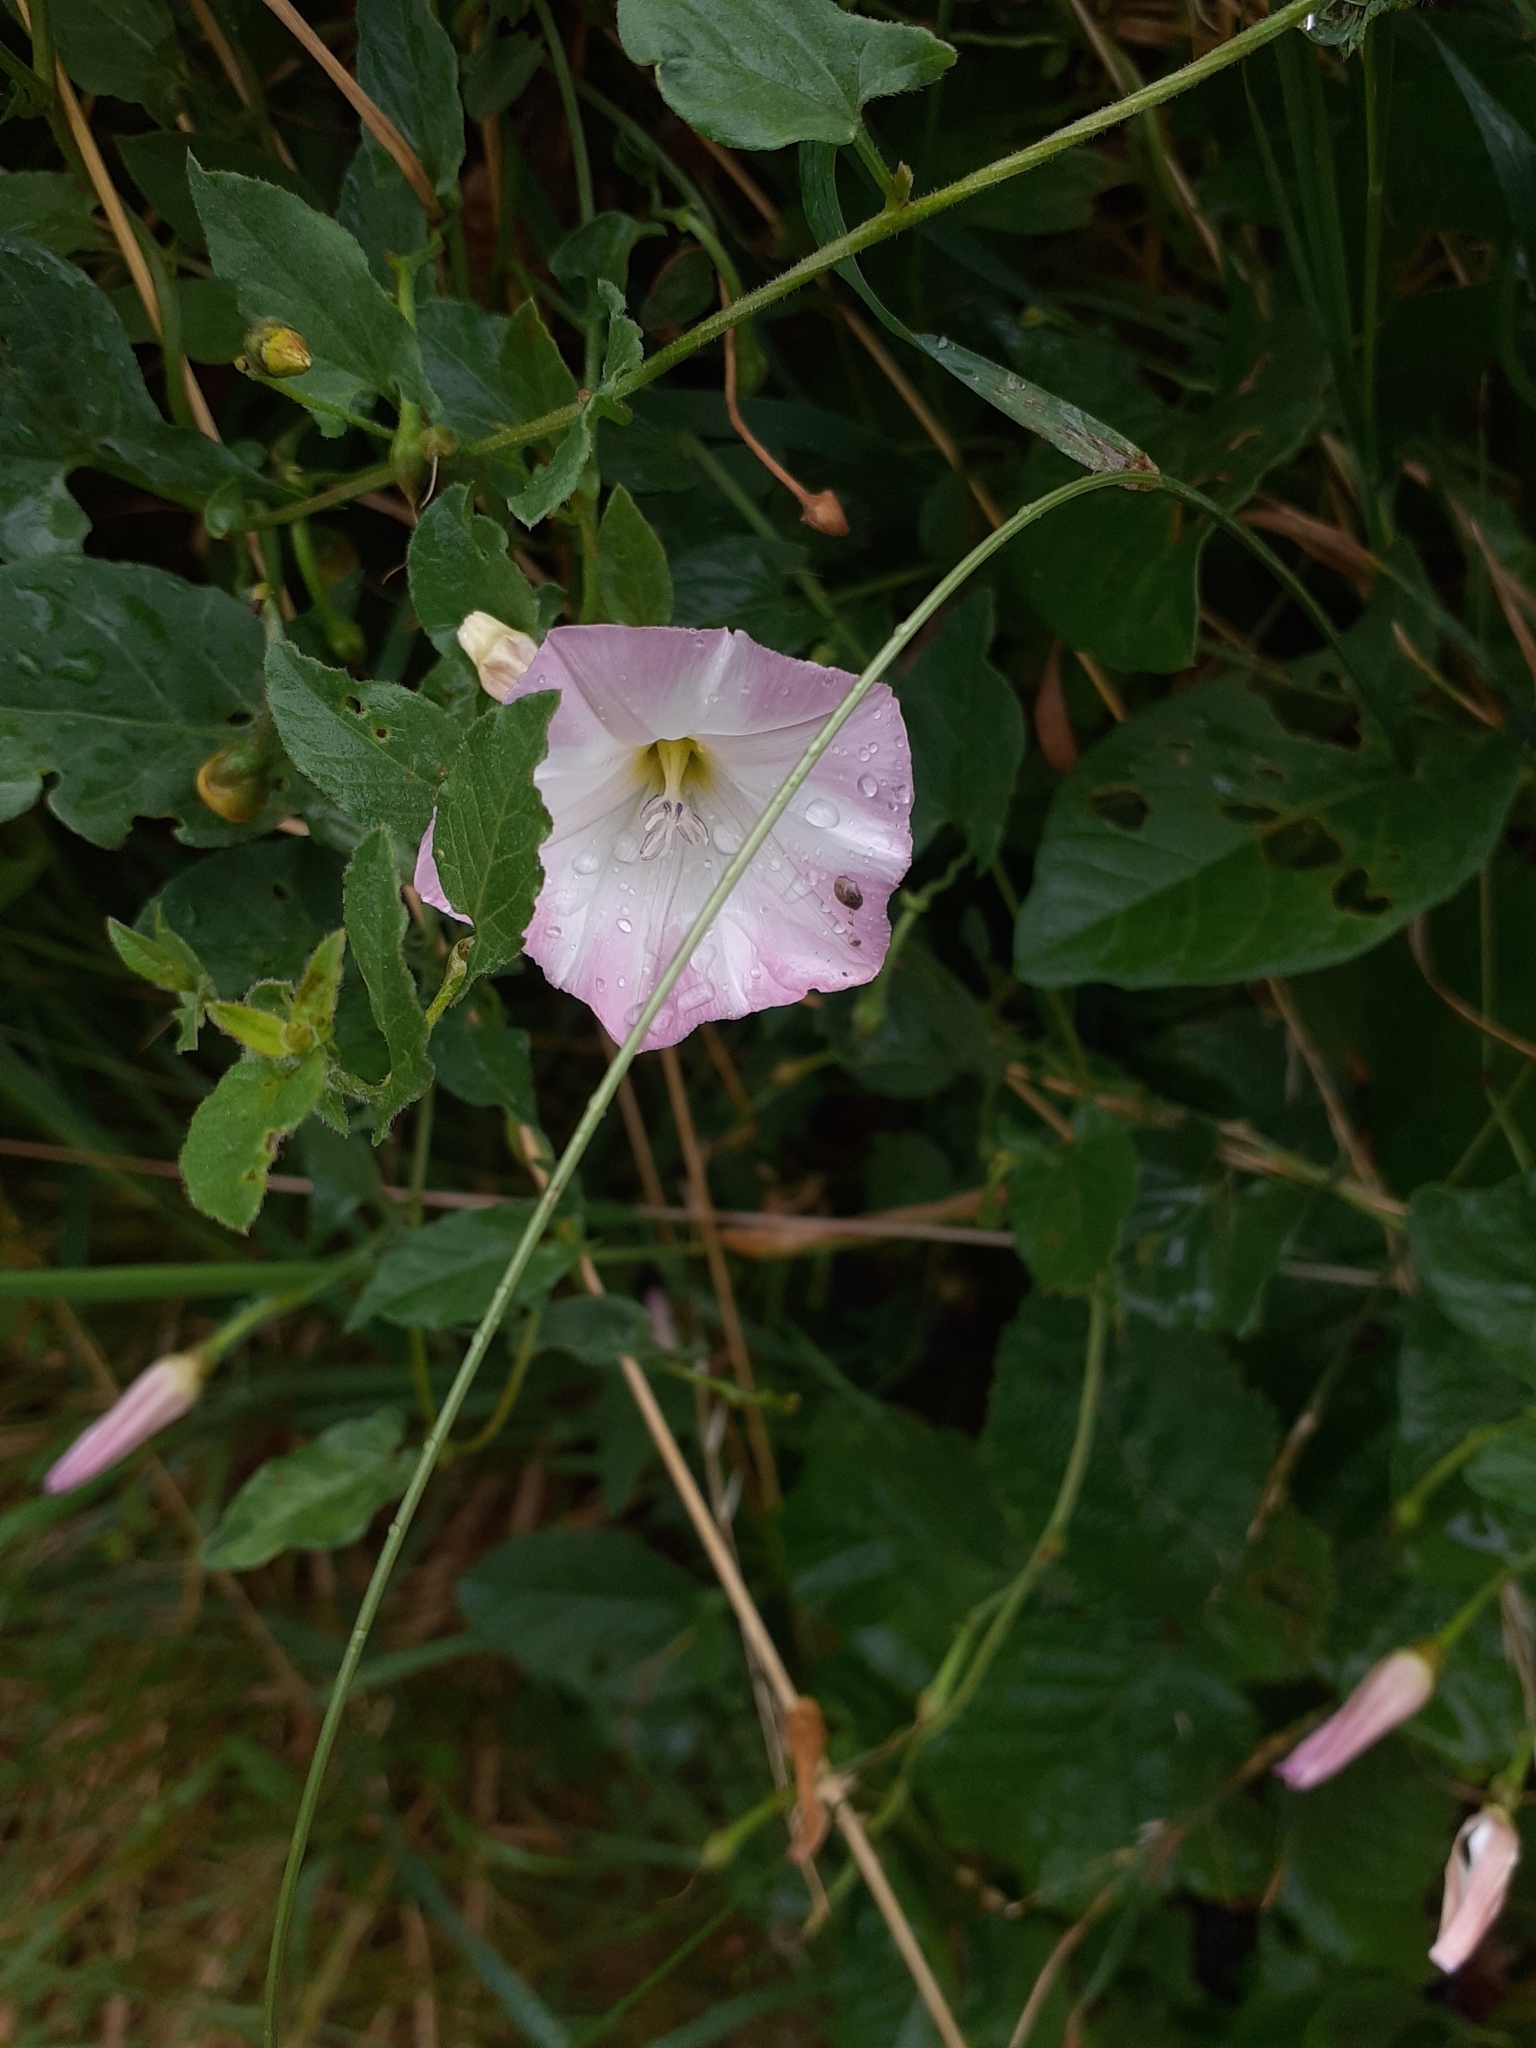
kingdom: Plantae
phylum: Tracheophyta
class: Magnoliopsida
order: Solanales
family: Convolvulaceae
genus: Convolvulus
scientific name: Convolvulus arvensis
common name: Field bindweed
